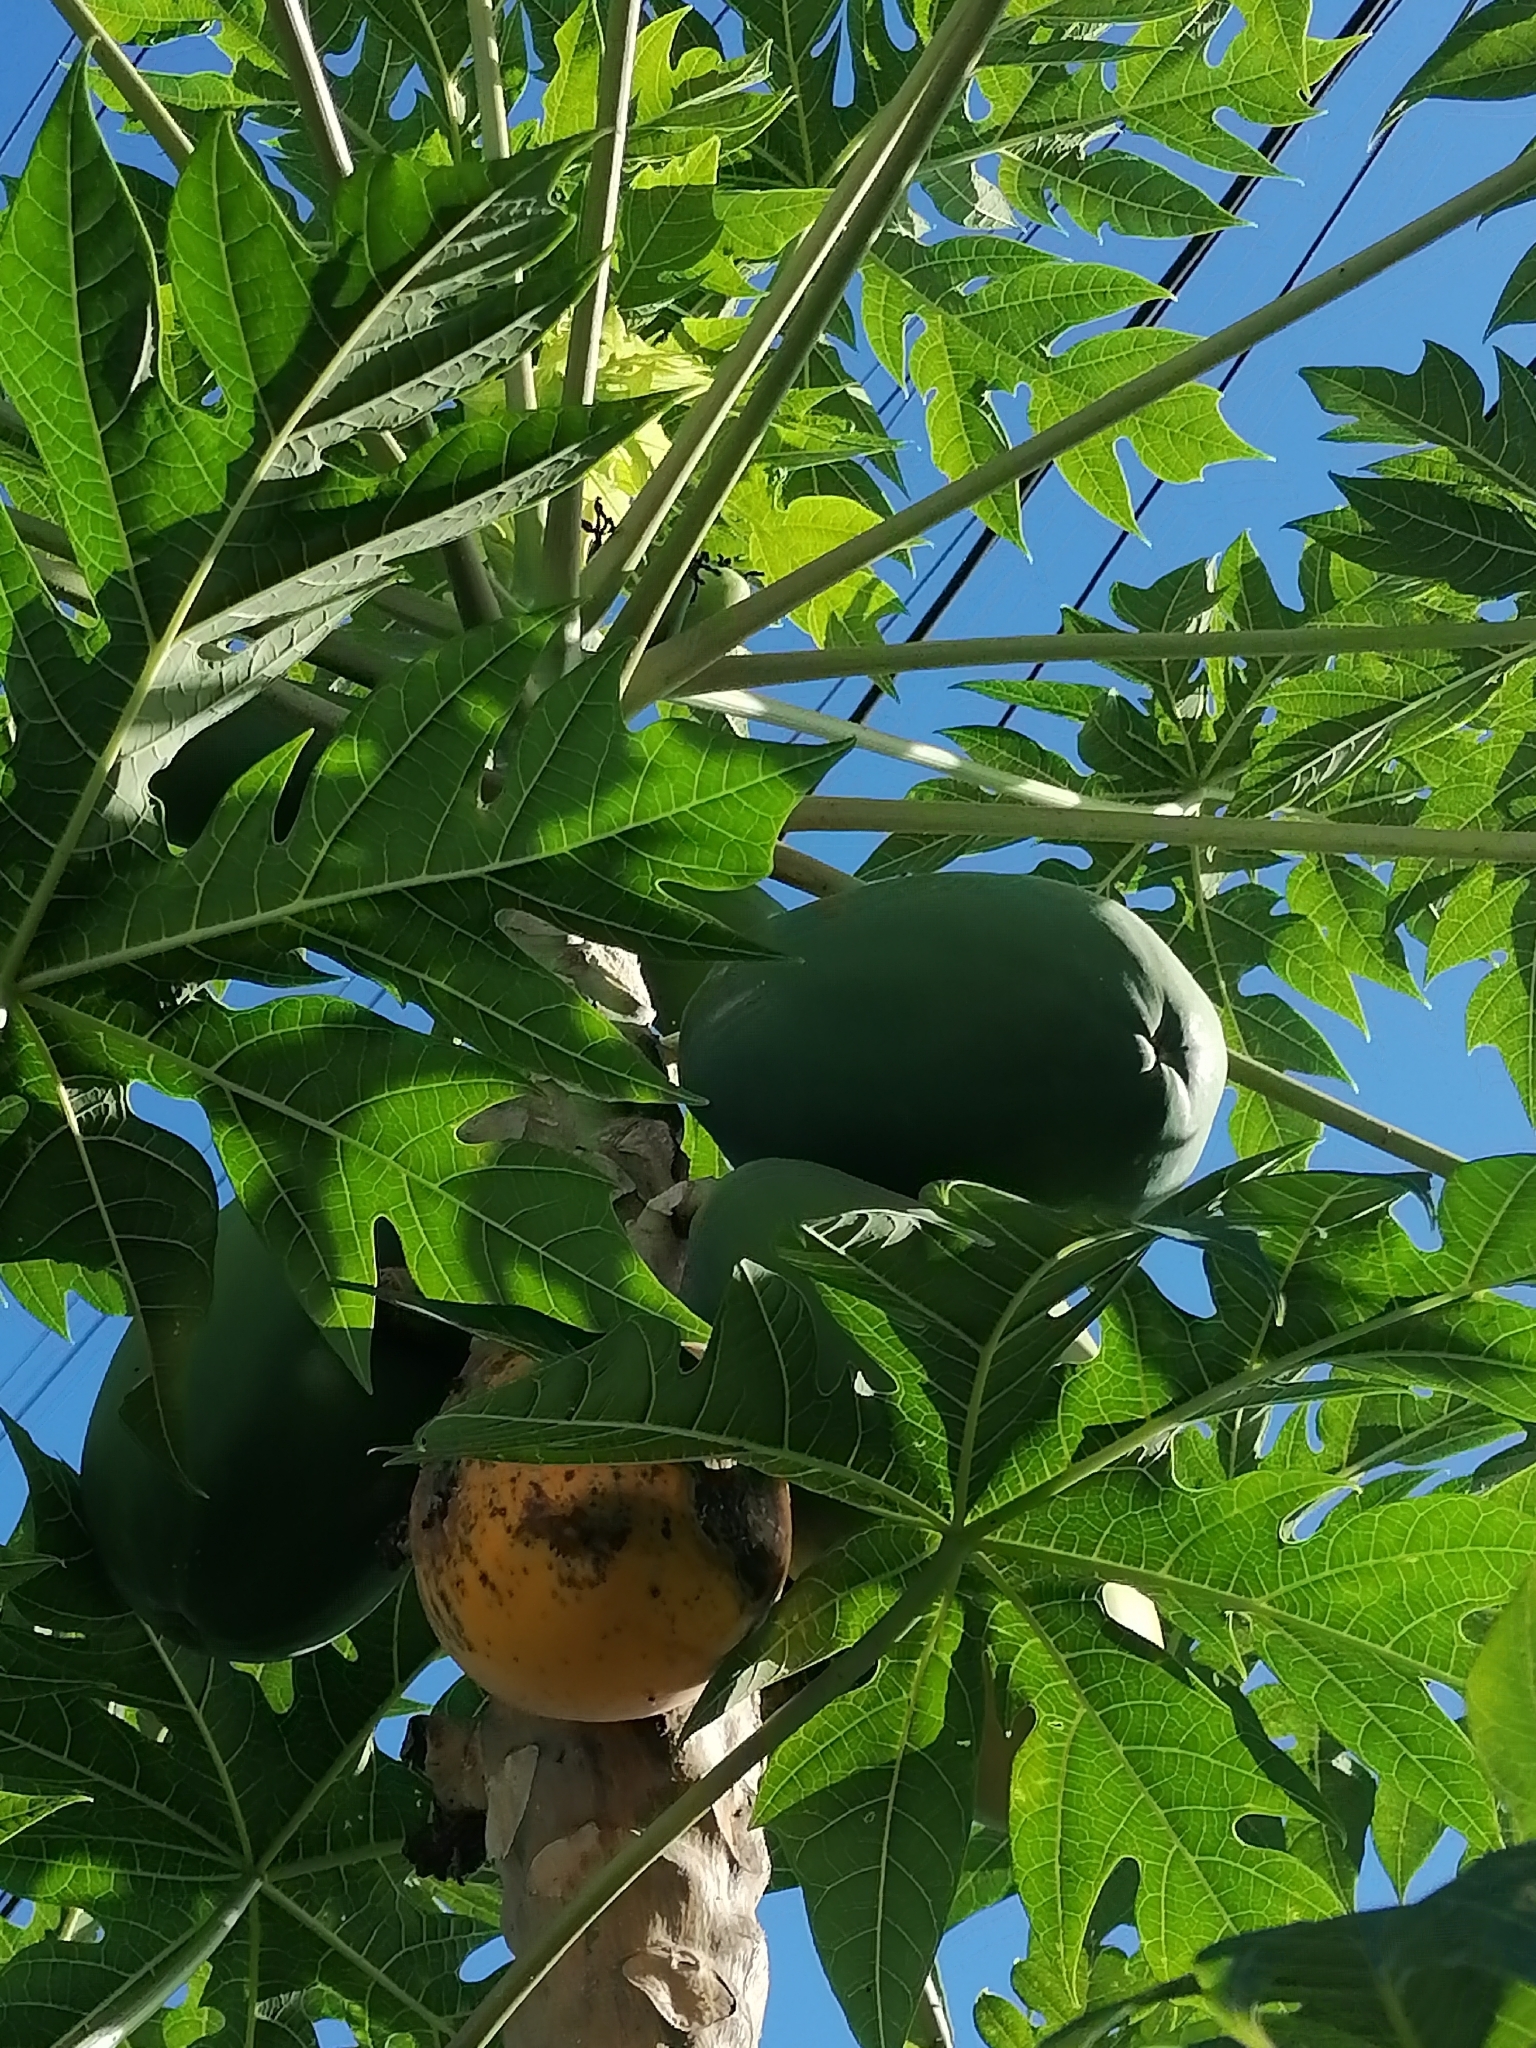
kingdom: Plantae
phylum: Tracheophyta
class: Magnoliopsida
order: Brassicales
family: Caricaceae
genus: Carica
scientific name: Carica papaya
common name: Papaya
